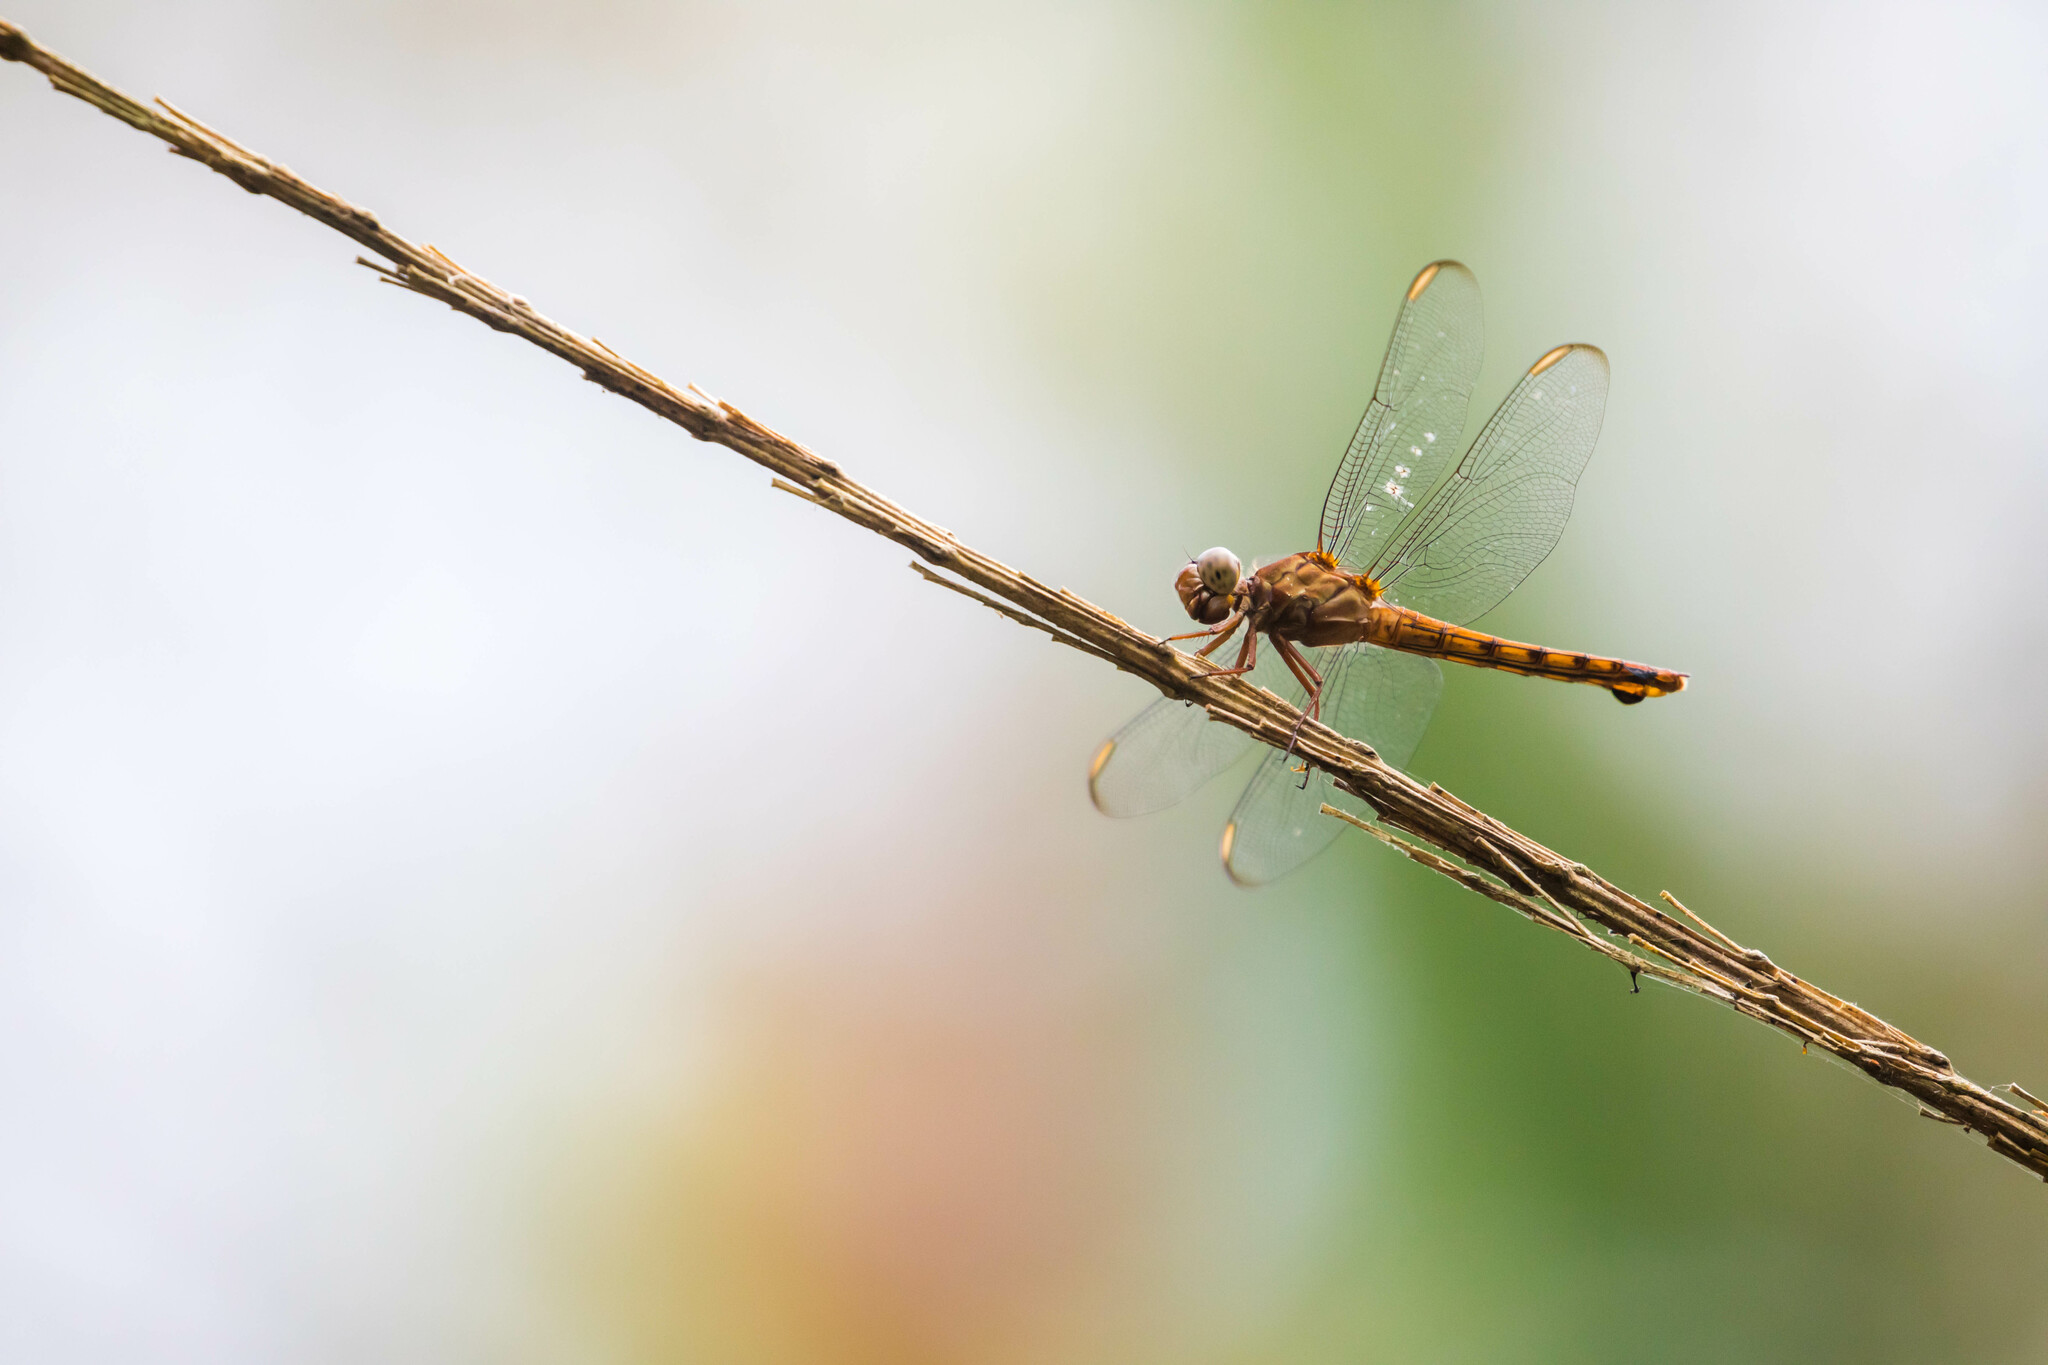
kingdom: Animalia
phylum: Arthropoda
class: Insecta
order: Odonata
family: Libellulidae
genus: Orthemis
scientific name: Orthemis discolor
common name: Carmine skimmer
